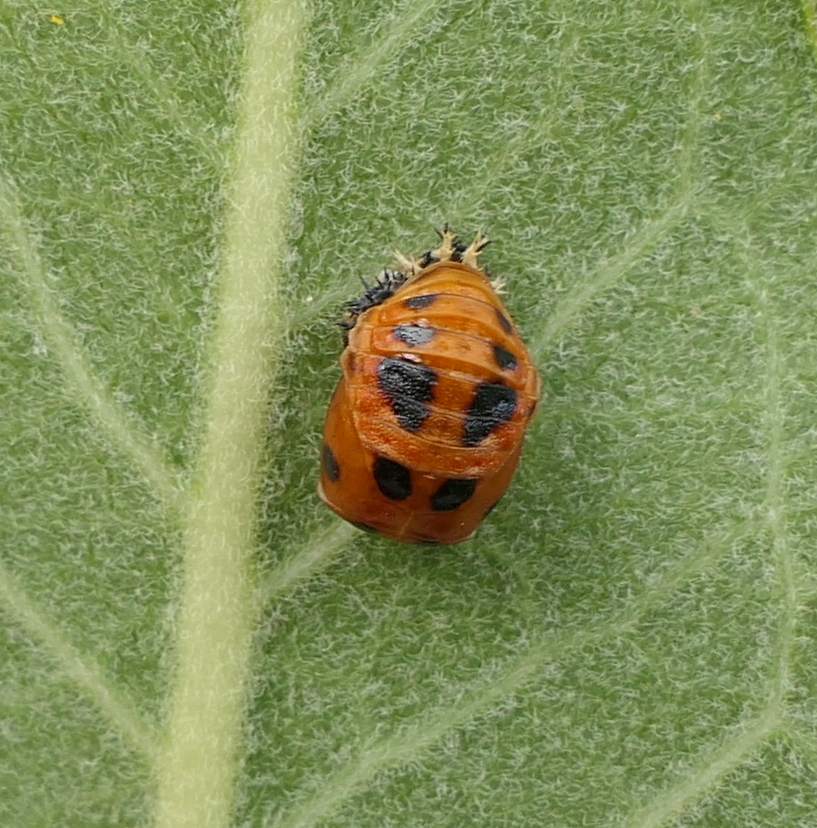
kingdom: Animalia
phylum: Arthropoda
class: Insecta
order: Coleoptera
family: Coccinellidae
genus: Harmonia
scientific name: Harmonia axyridis
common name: Harlequin ladybird
